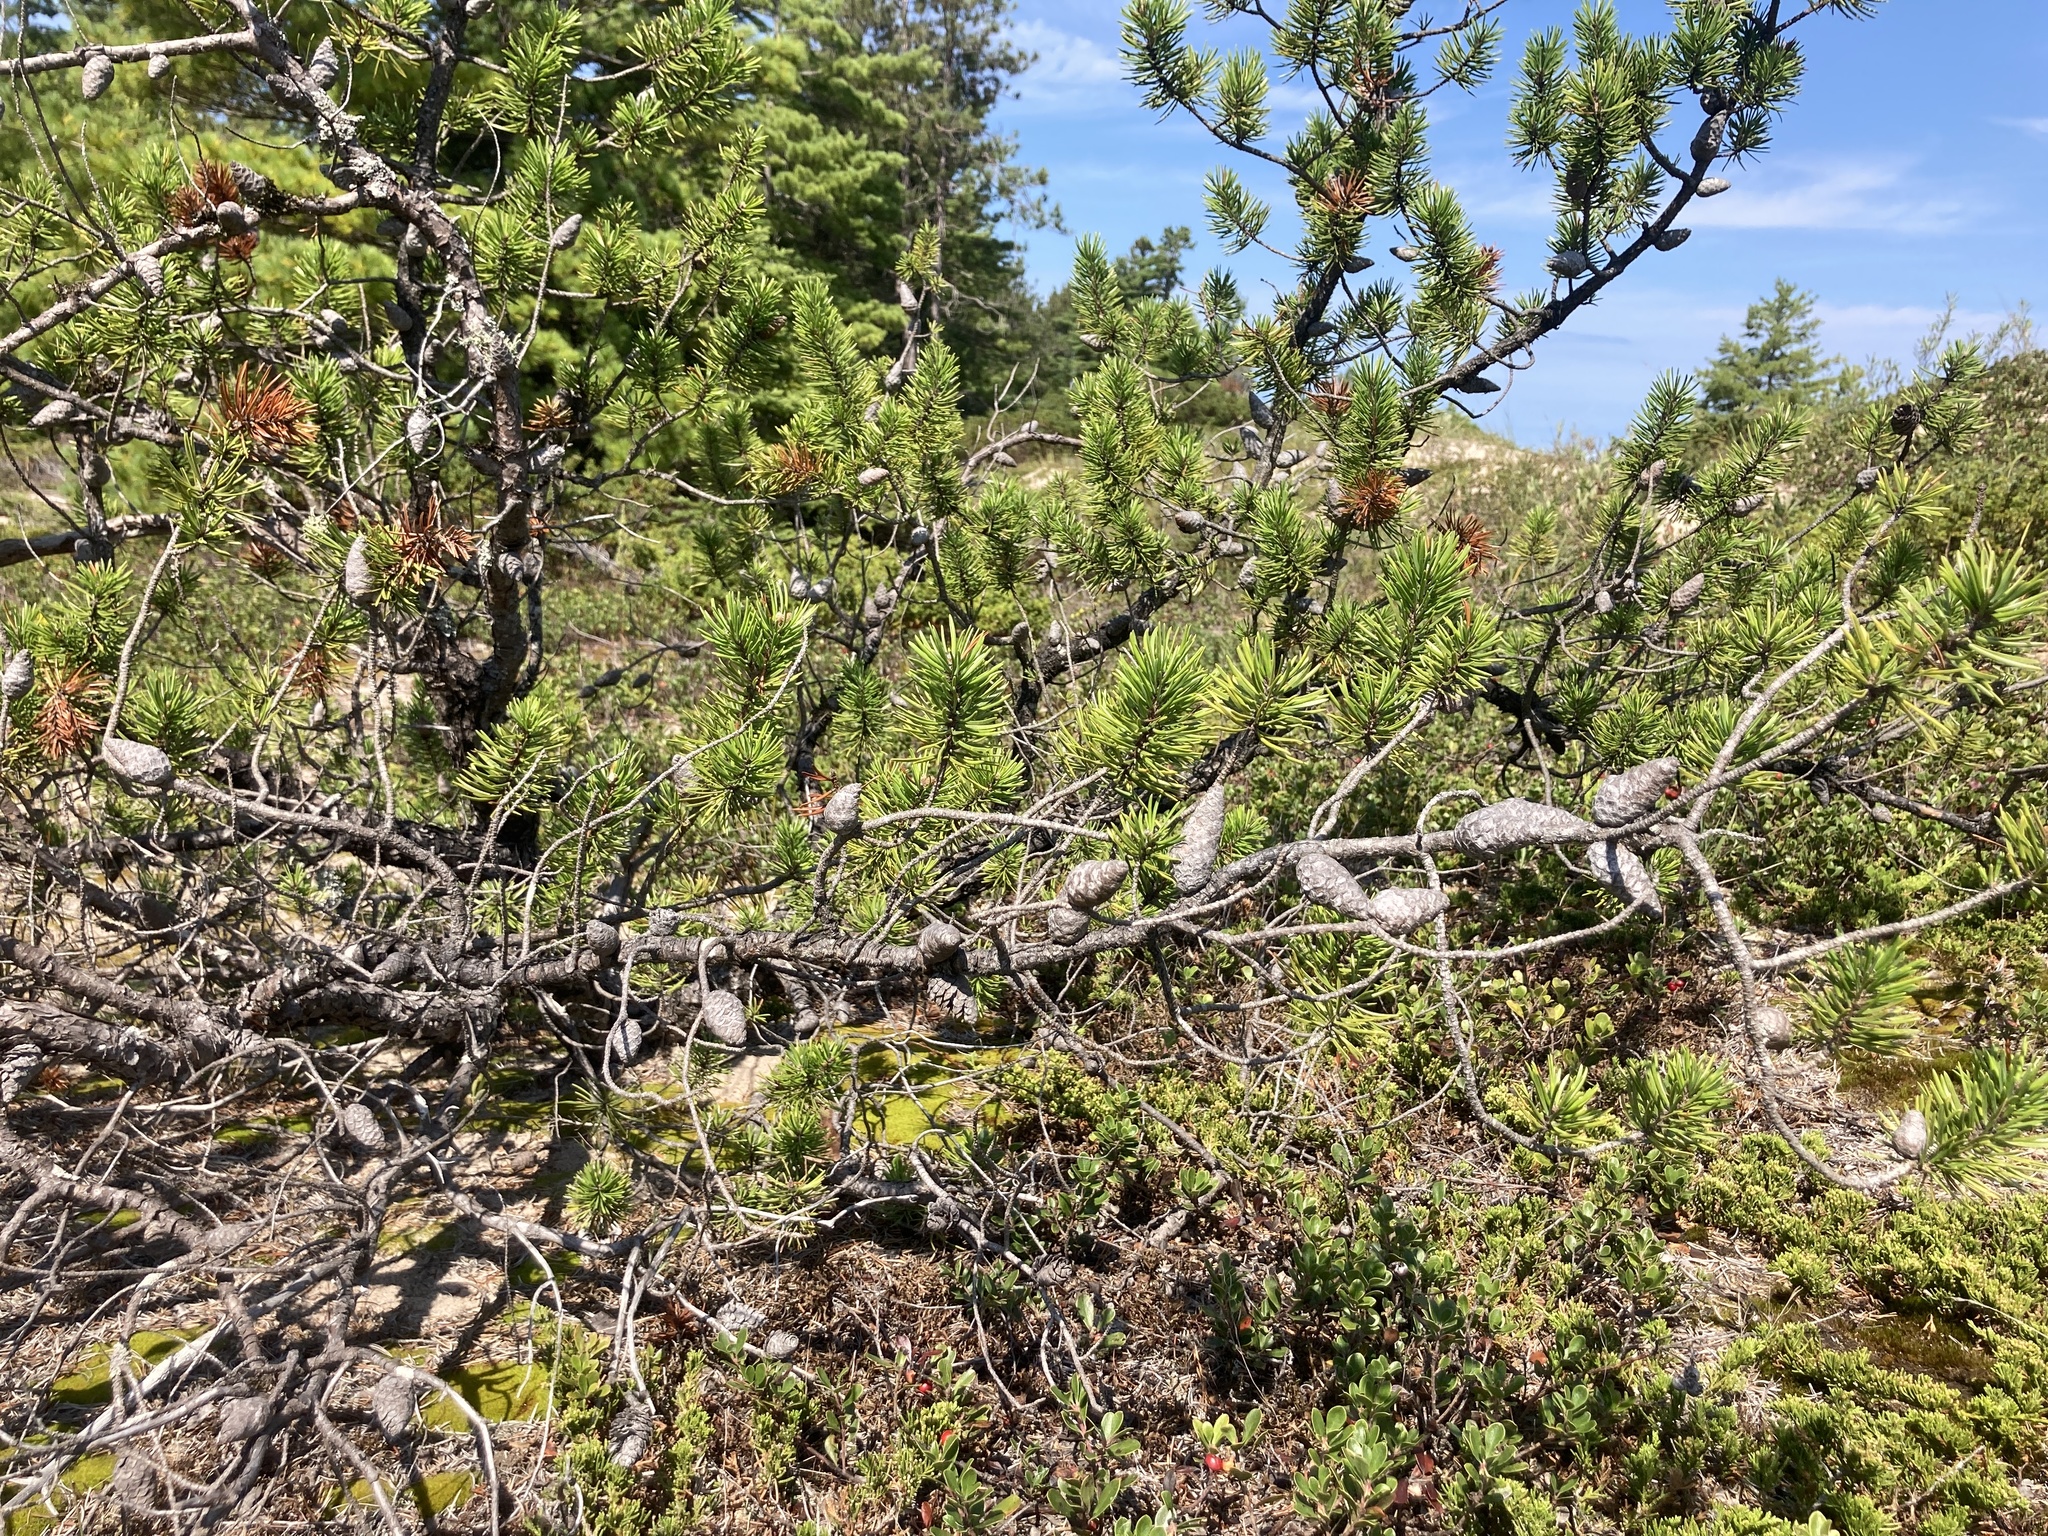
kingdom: Plantae
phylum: Tracheophyta
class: Pinopsida
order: Pinales
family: Pinaceae
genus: Pinus
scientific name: Pinus banksiana
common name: Jack pine
